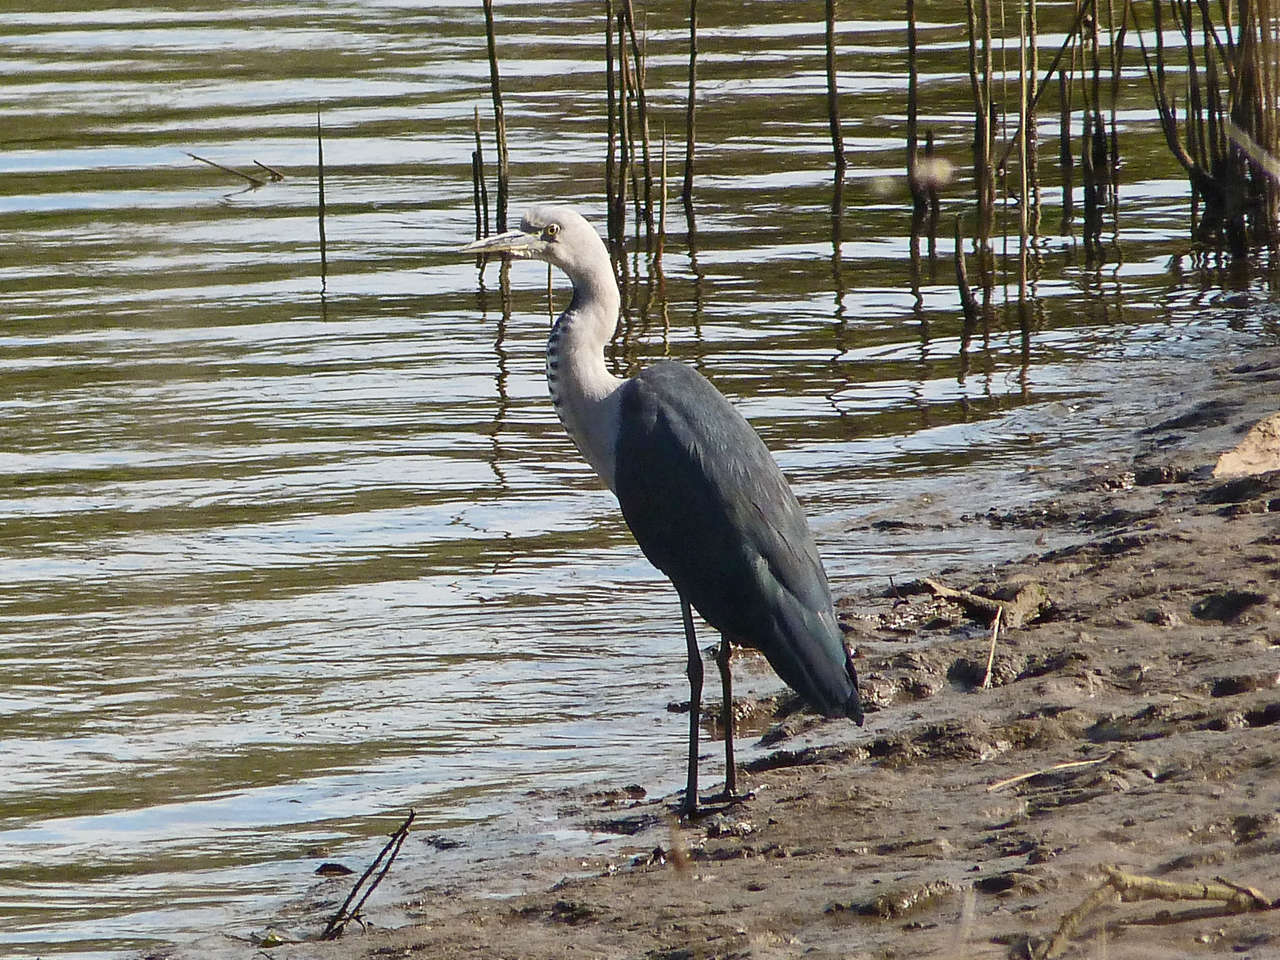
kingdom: Animalia
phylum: Chordata
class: Aves
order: Pelecaniformes
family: Ardeidae
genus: Ardea
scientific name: Ardea pacifica
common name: White-necked heron
